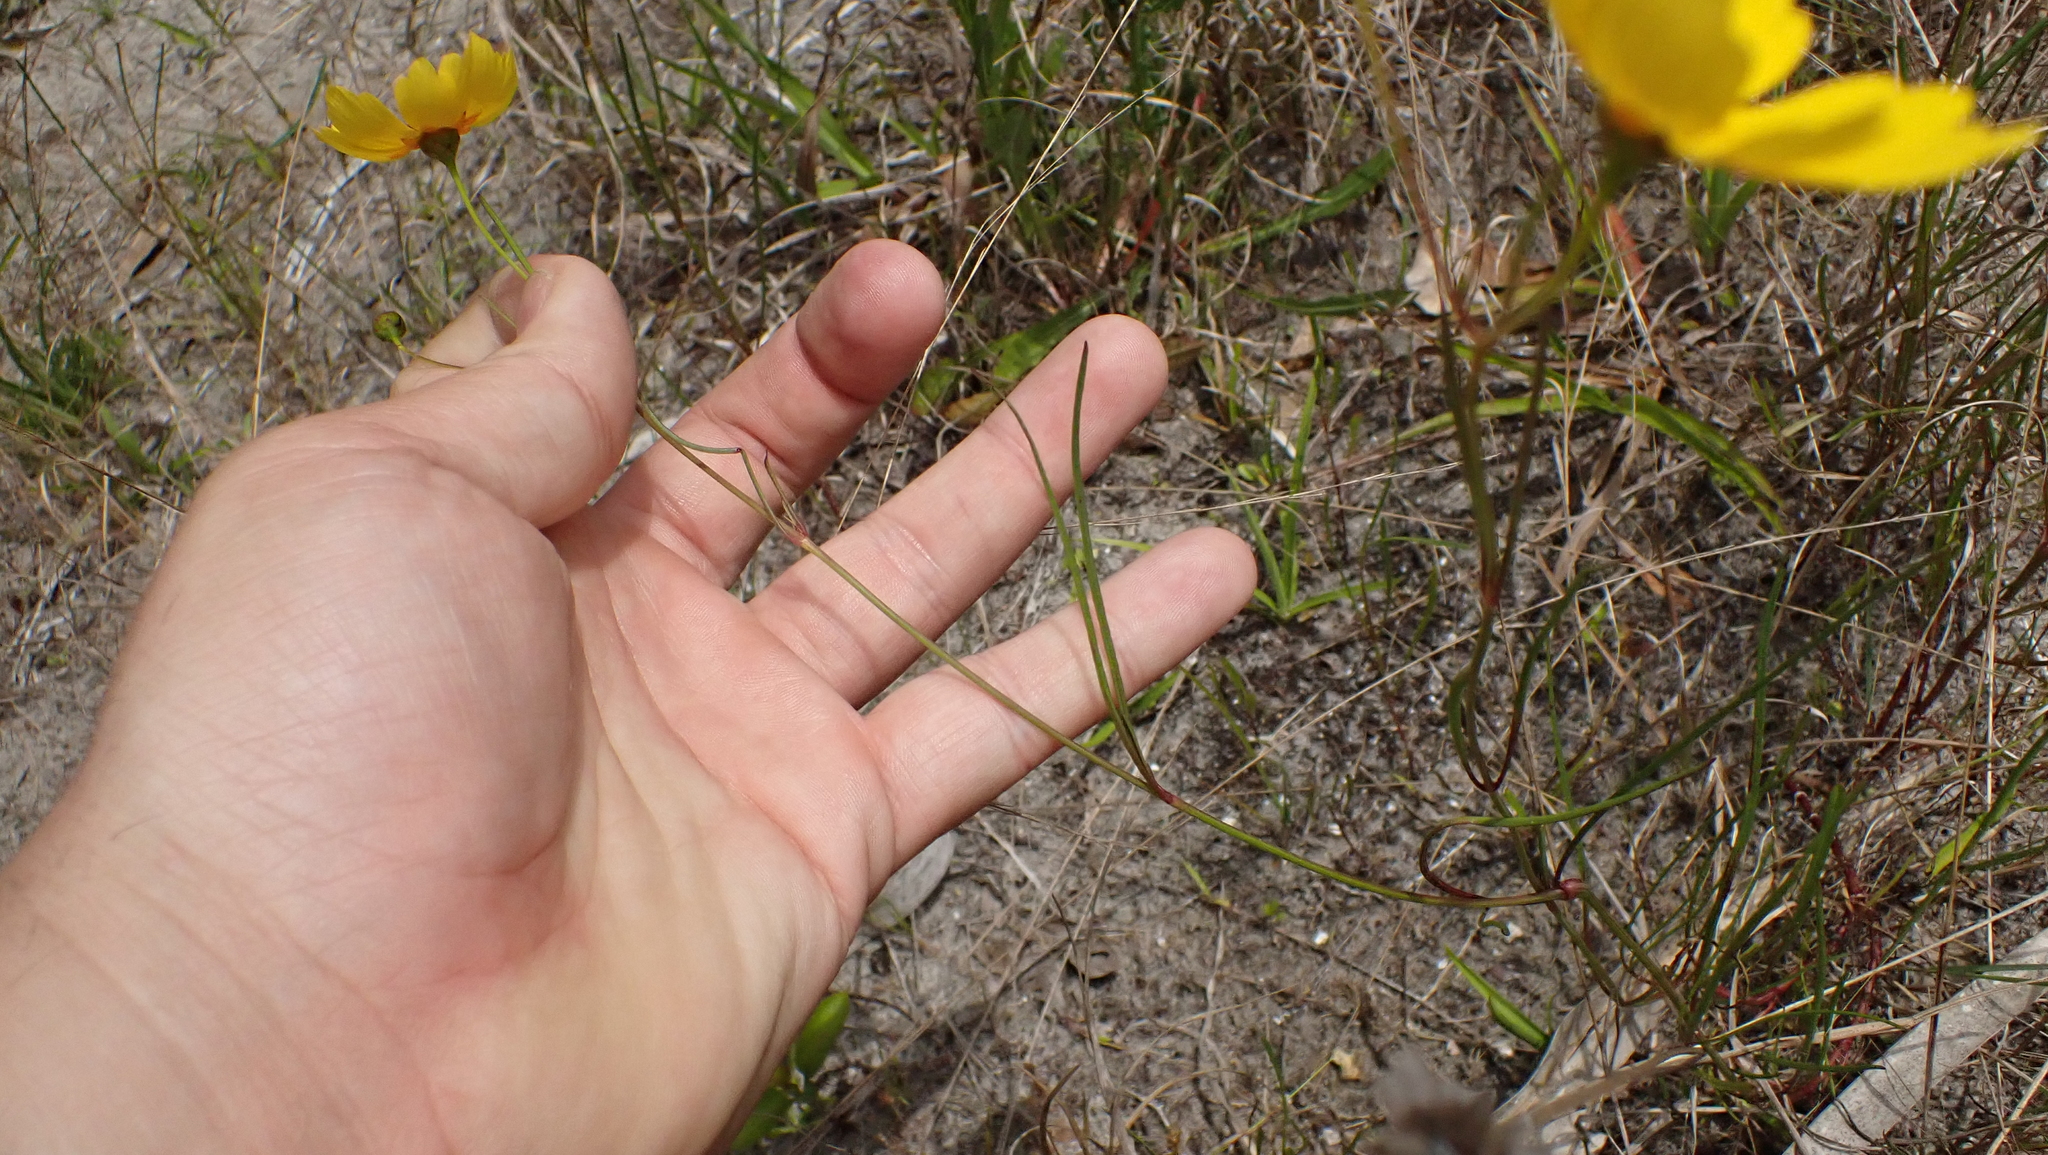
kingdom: Plantae
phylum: Tracheophyta
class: Magnoliopsida
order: Asterales
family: Asteraceae
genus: Coreopsis
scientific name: Coreopsis leavenworthii
